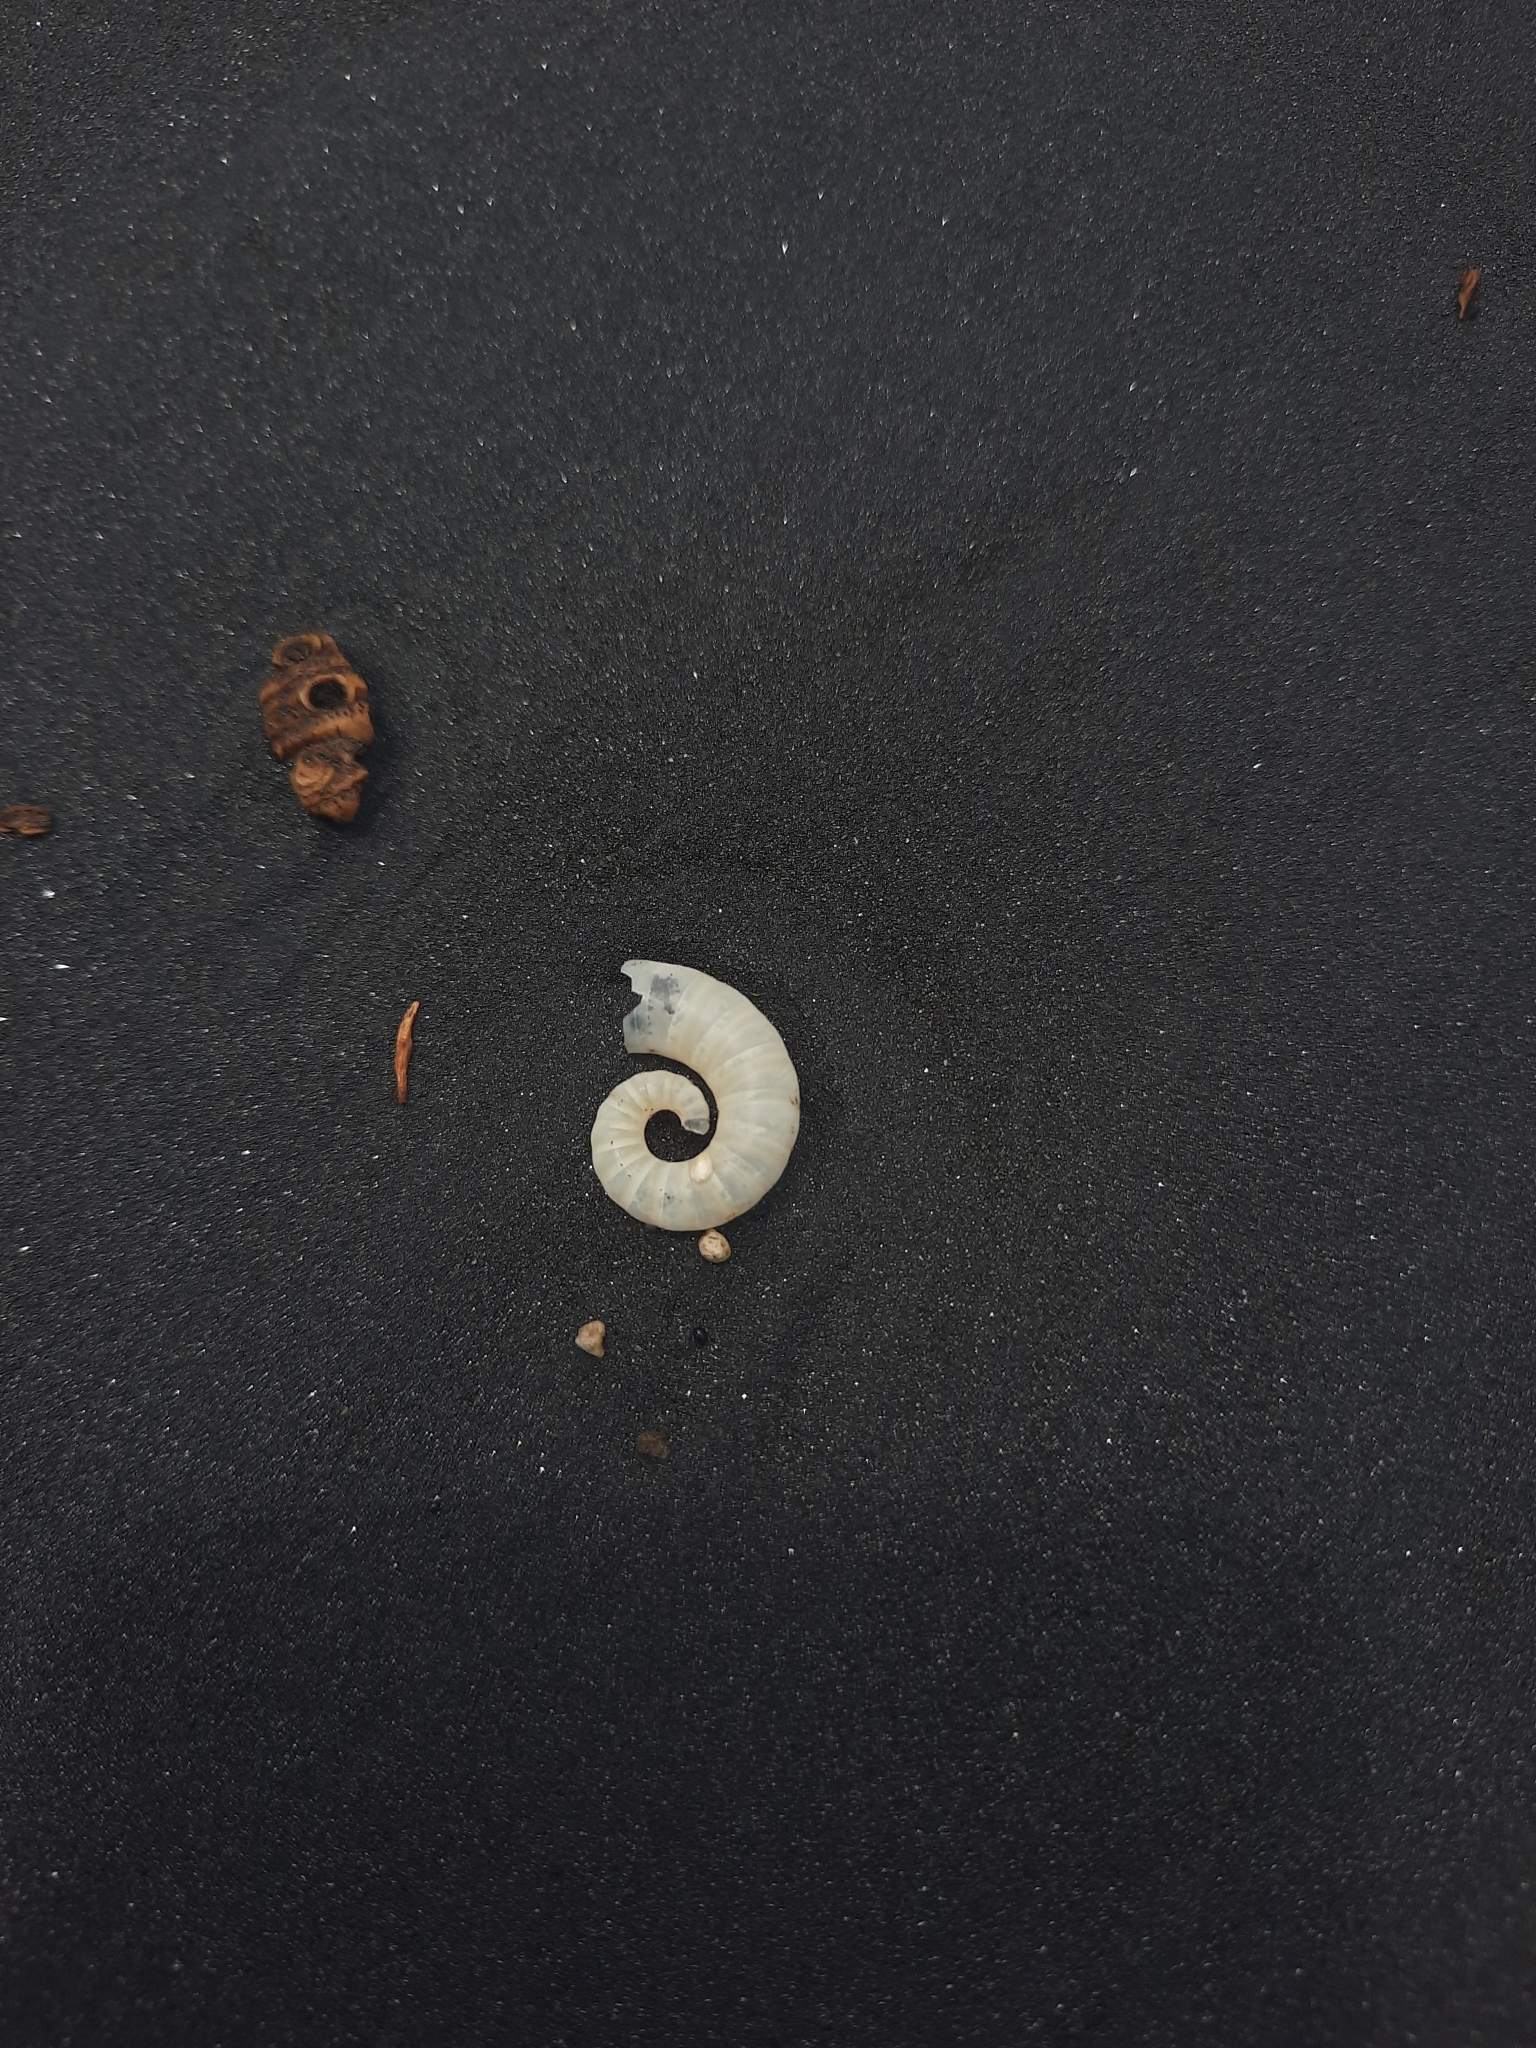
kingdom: Animalia
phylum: Mollusca
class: Cephalopoda
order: Spirulida
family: Spirulidae
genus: Spirula
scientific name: Spirula spirula
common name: Ram's horn squid
